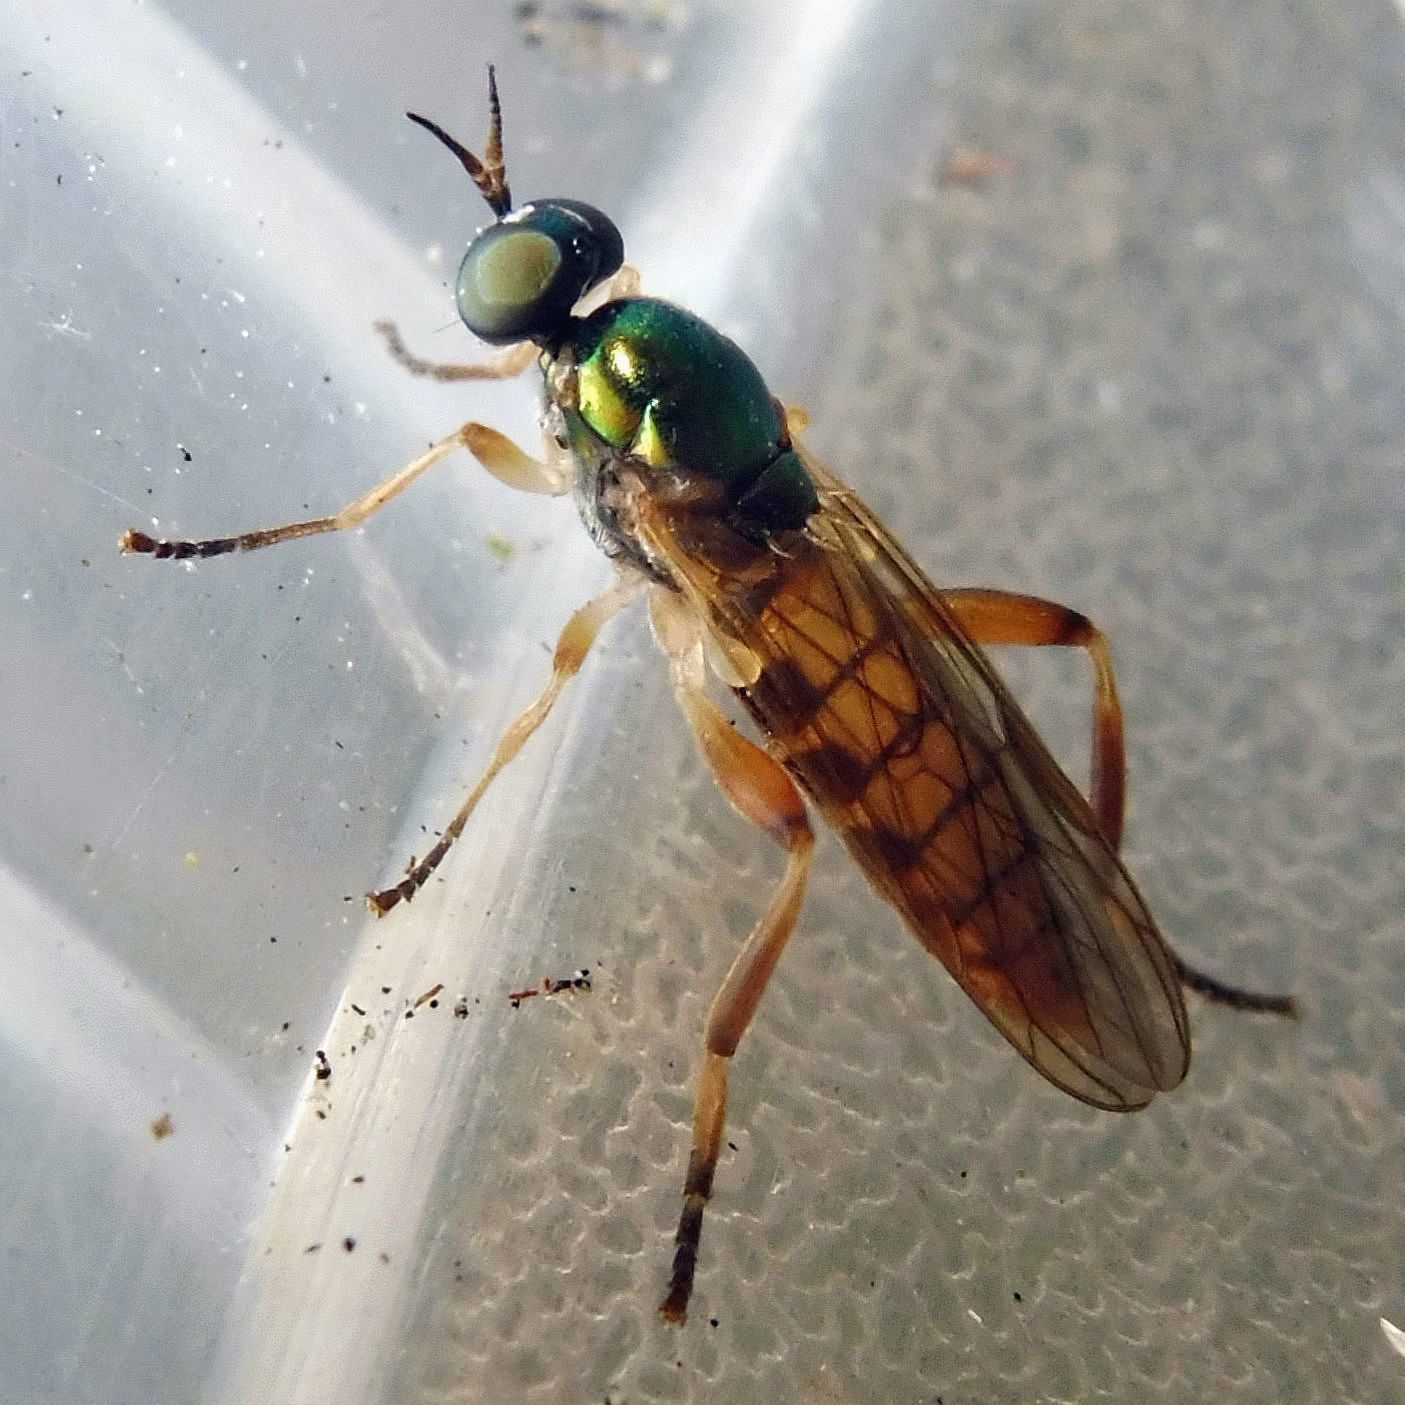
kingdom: Animalia
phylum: Arthropoda
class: Insecta
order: Diptera
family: Stratiomyidae
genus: Chorisops
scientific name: Chorisops nagatomii
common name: Bright four-spined legionnaire
